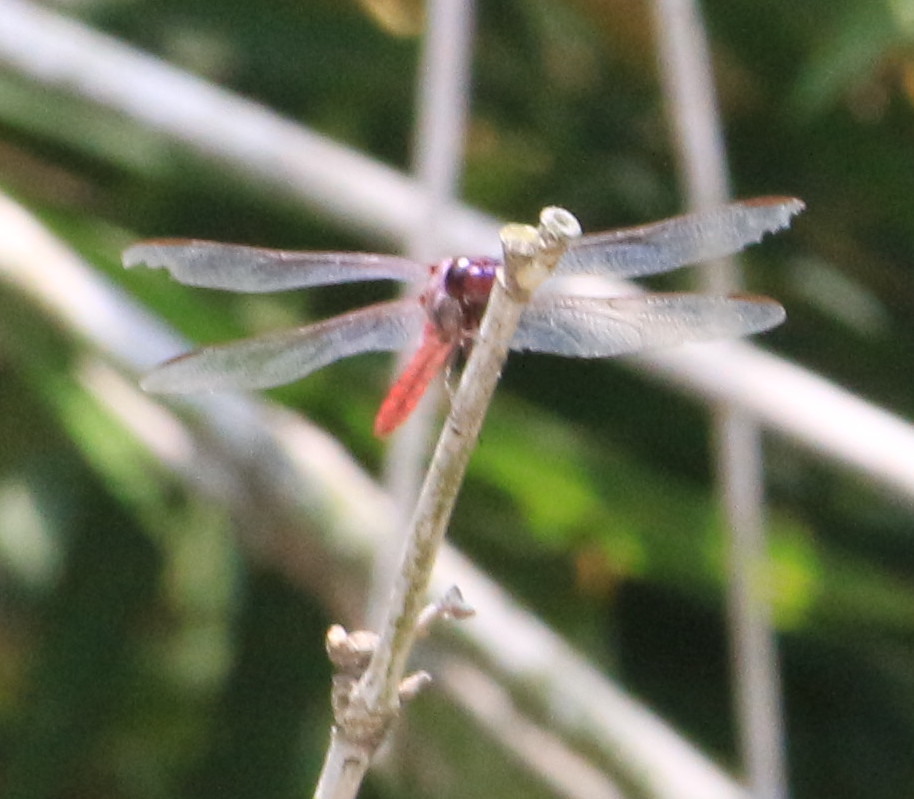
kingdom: Animalia
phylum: Arthropoda
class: Insecta
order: Odonata
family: Libellulidae
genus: Orthemis
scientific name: Orthemis ferruginea
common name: Roseate skimmer
